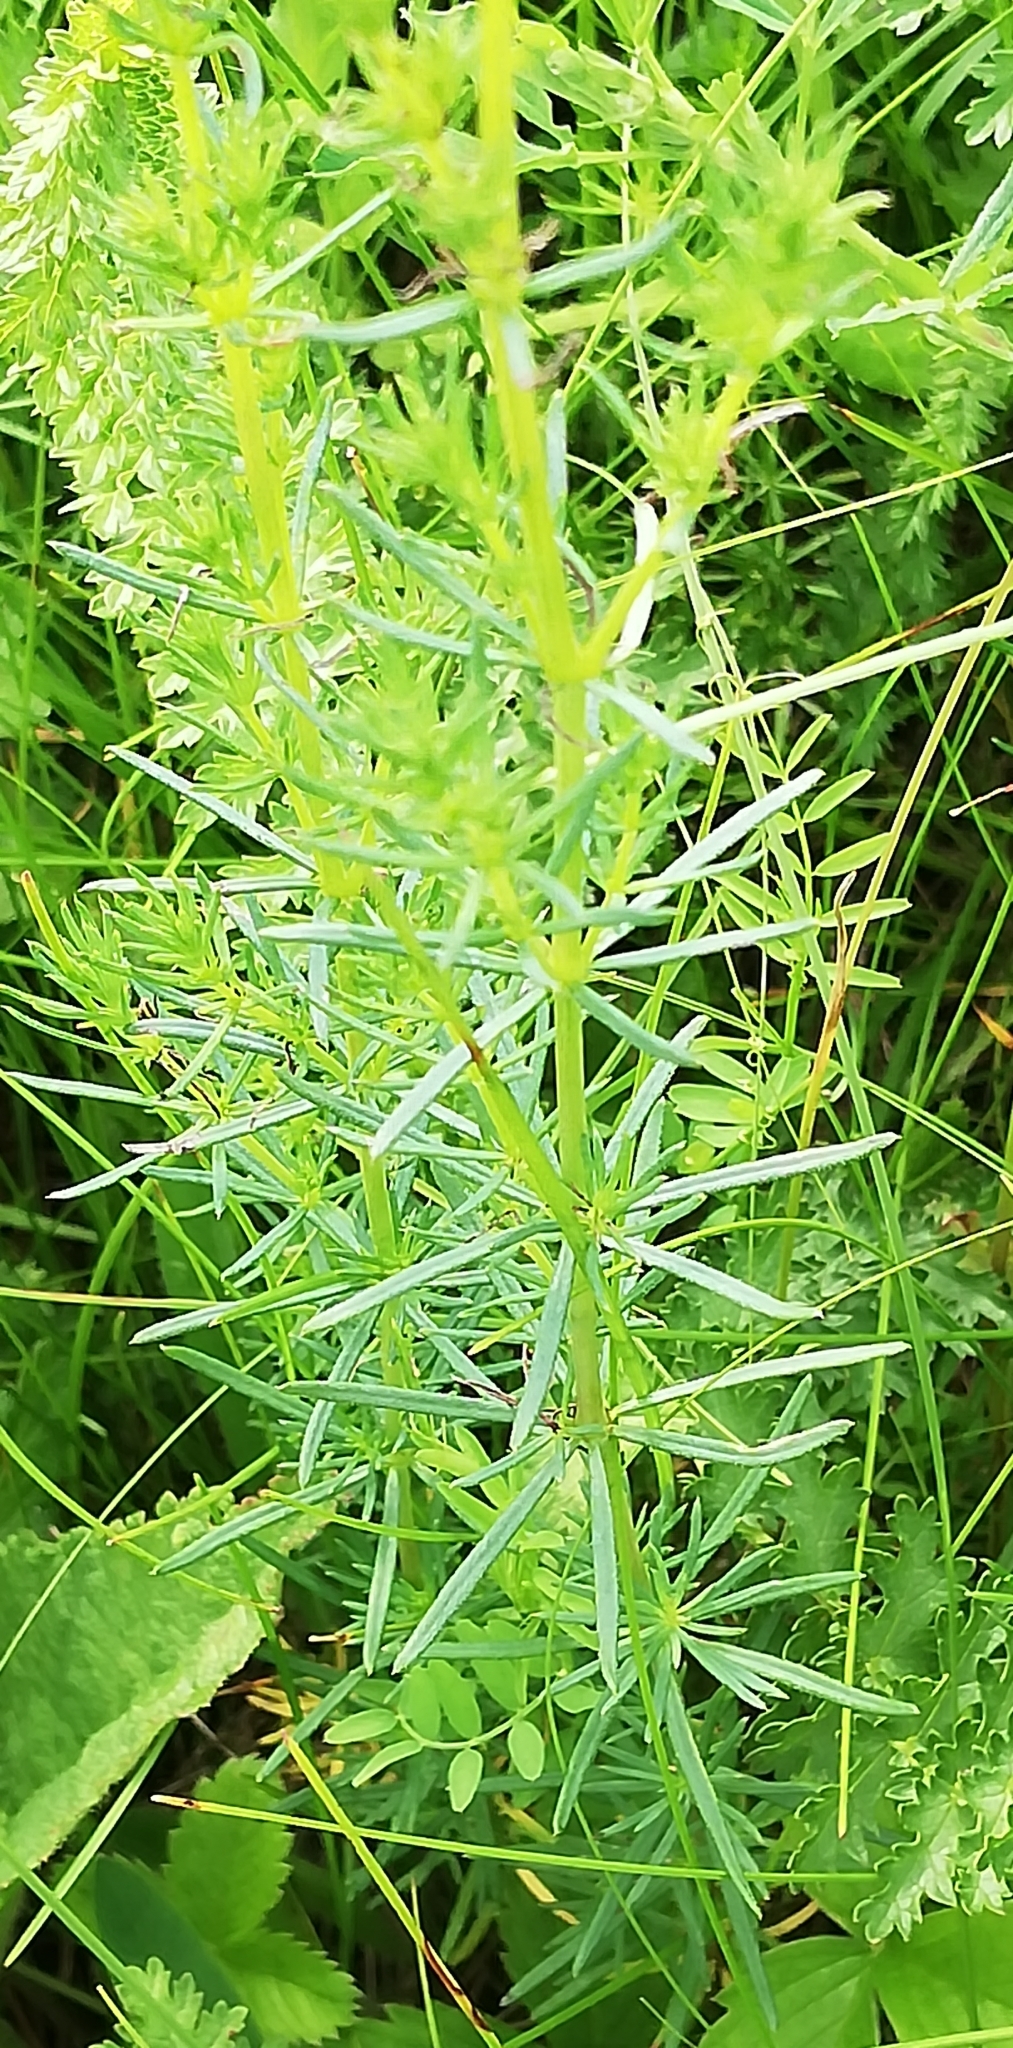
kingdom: Plantae
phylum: Tracheophyta
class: Magnoliopsida
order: Gentianales
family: Rubiaceae
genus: Galium
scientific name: Galium verum
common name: Lady's bedstraw
